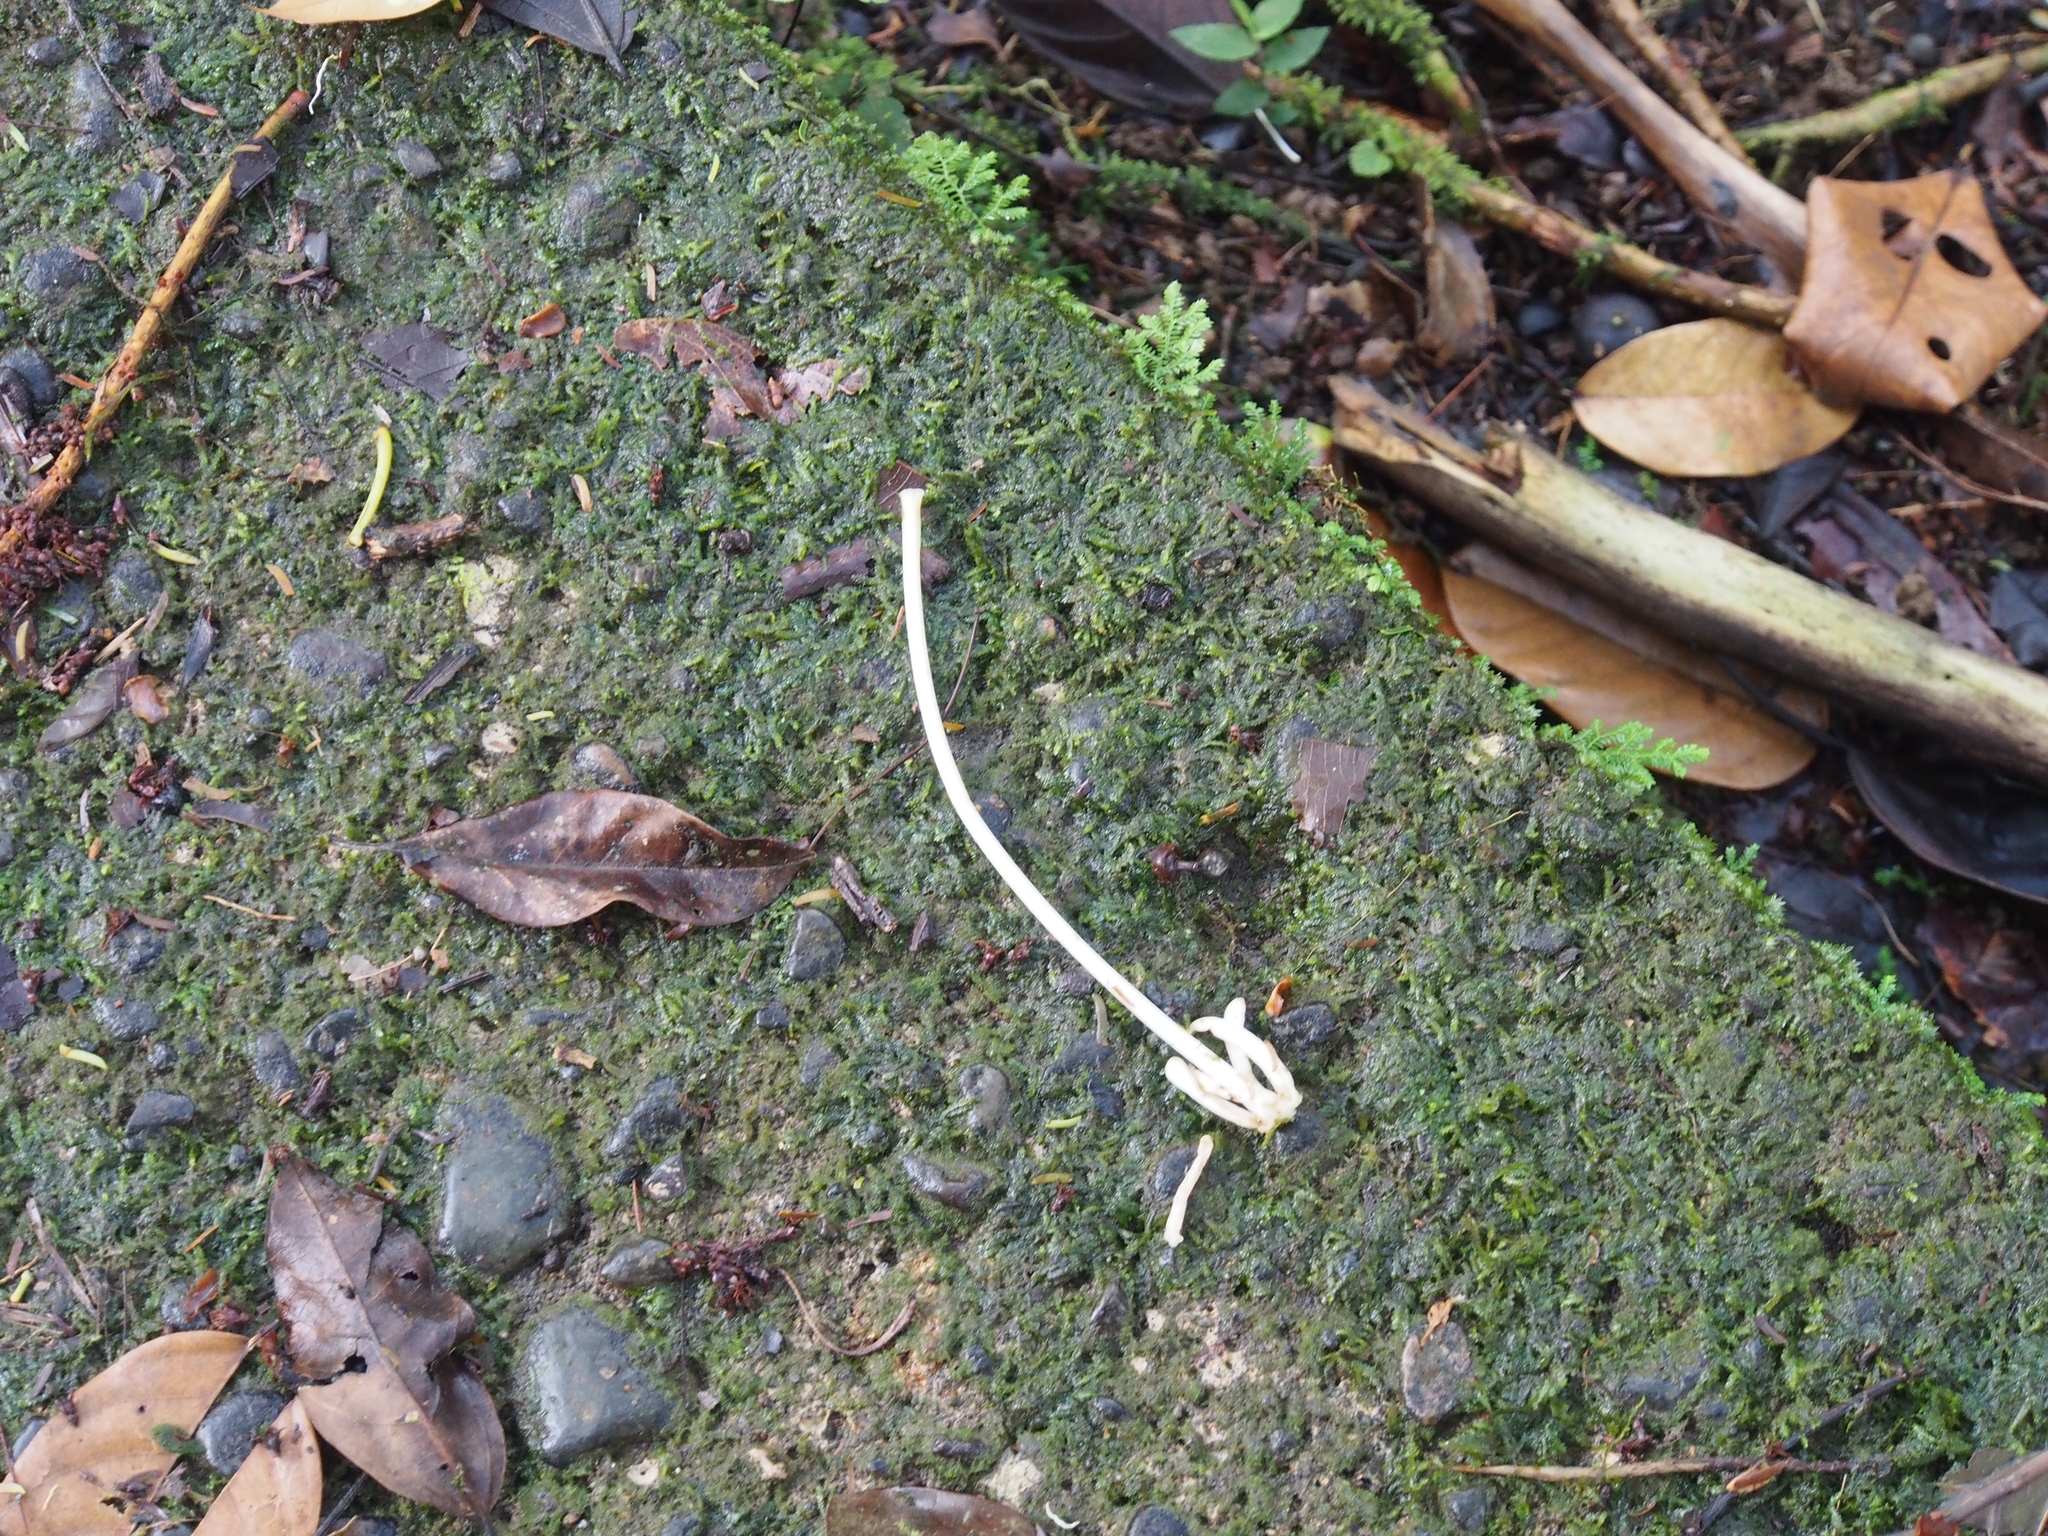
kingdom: Plantae
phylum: Tracheophyta
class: Magnoliopsida
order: Gentianales
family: Rubiaceae
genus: Posoqueria
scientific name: Posoqueria latifolia
